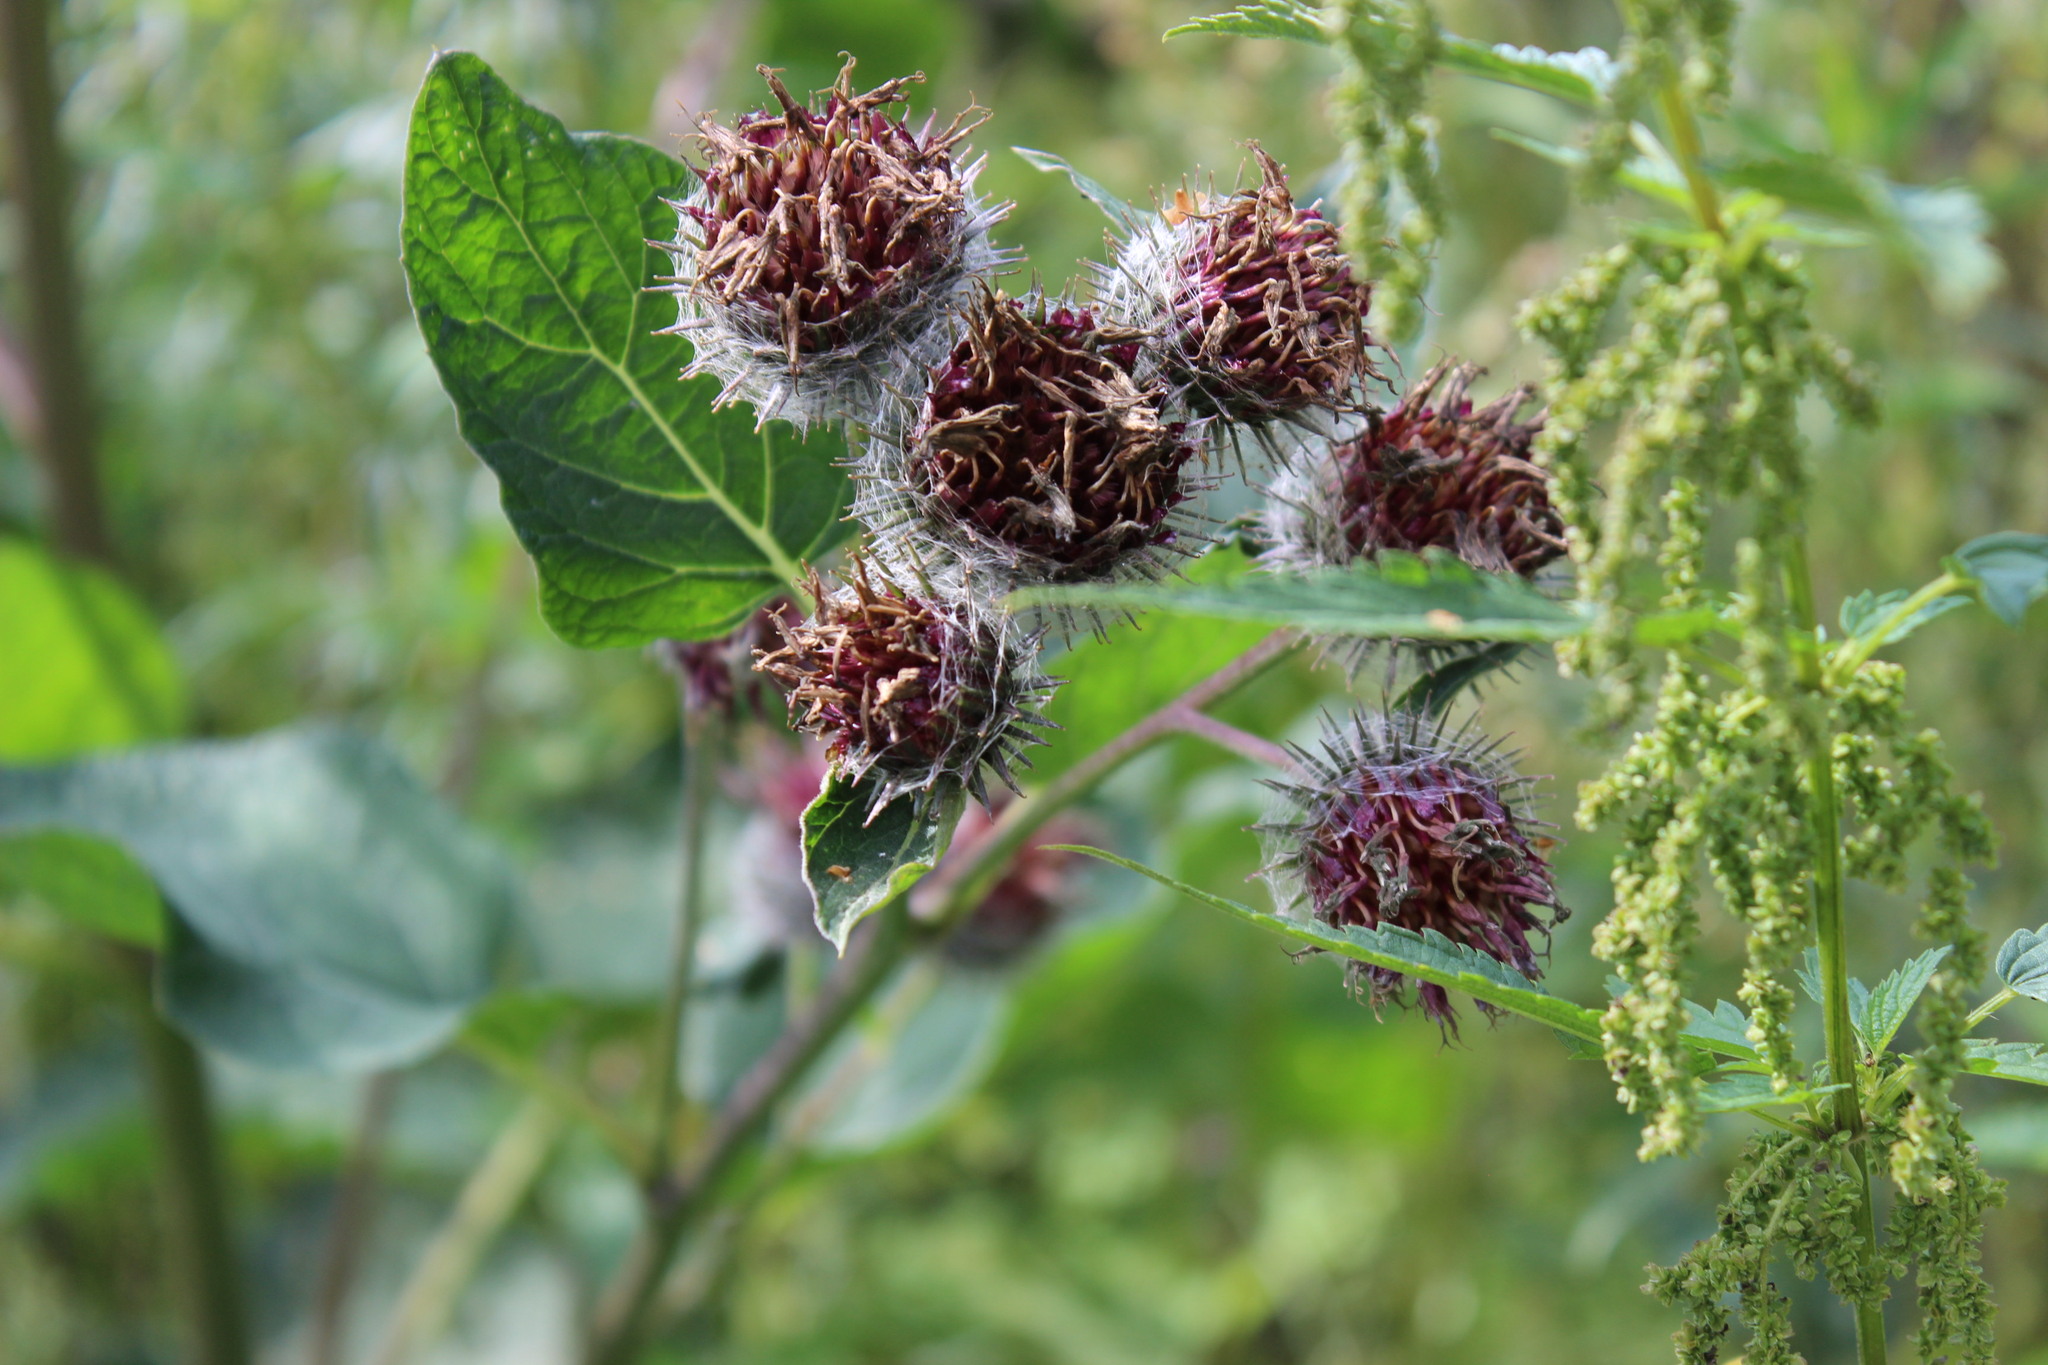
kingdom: Plantae
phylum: Tracheophyta
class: Magnoliopsida
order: Asterales
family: Asteraceae
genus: Arctium
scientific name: Arctium tomentosum
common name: Woolly burdock
